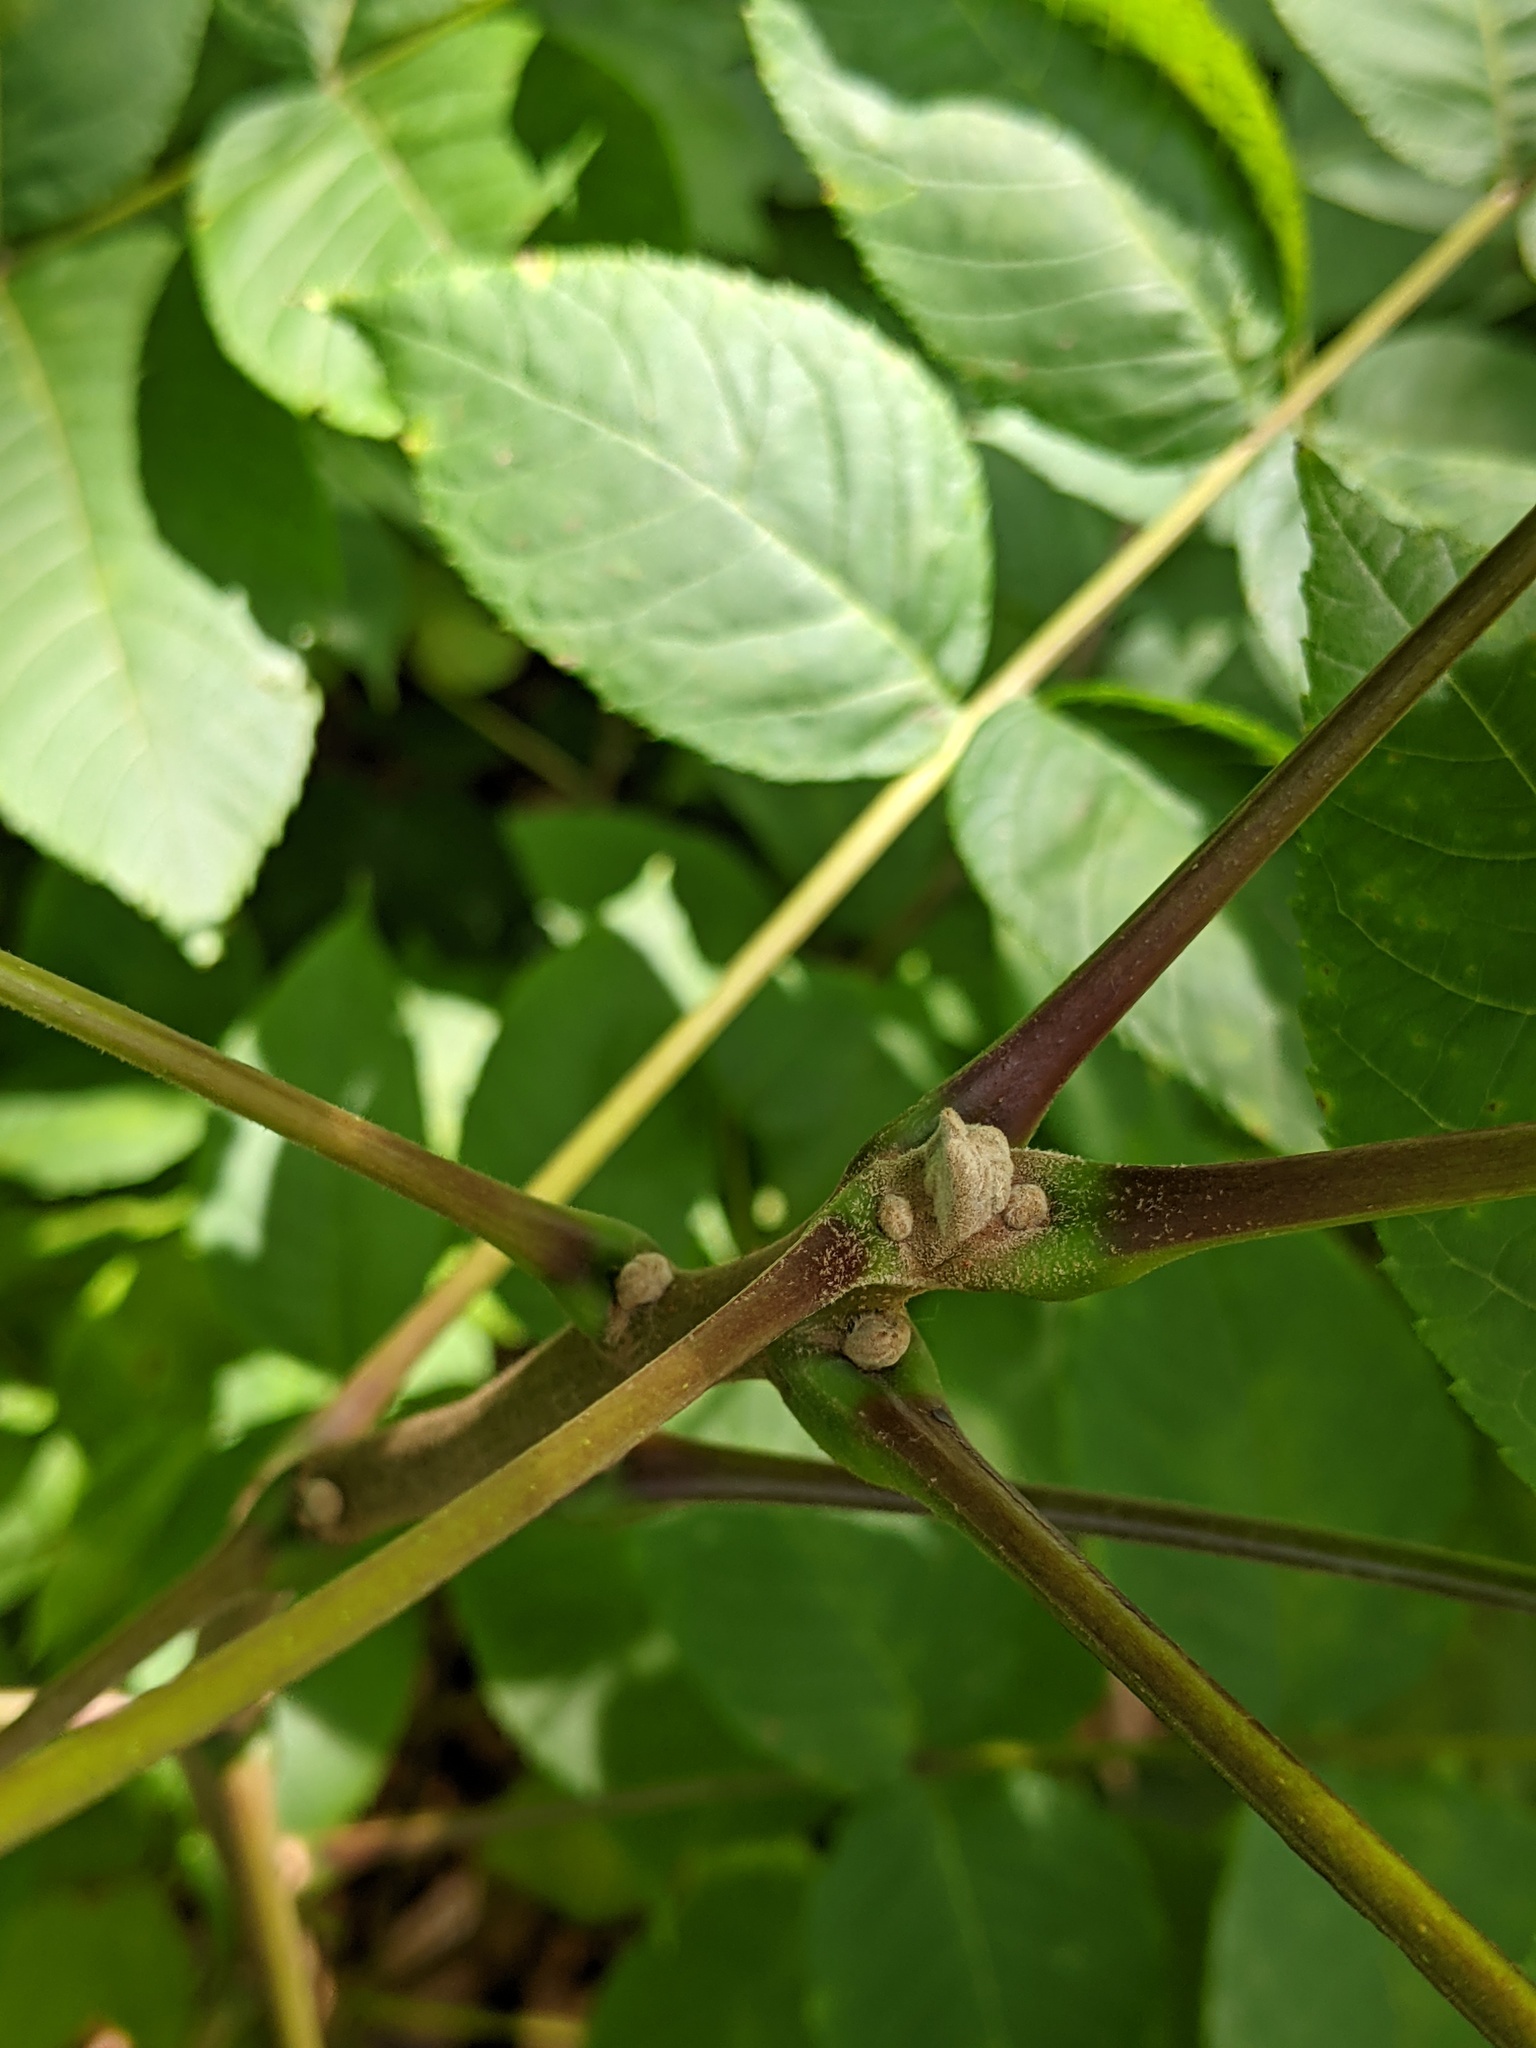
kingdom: Plantae
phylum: Tracheophyta
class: Magnoliopsida
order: Fagales
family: Juglandaceae
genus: Juglans
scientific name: Juglans nigra
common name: Black walnut
